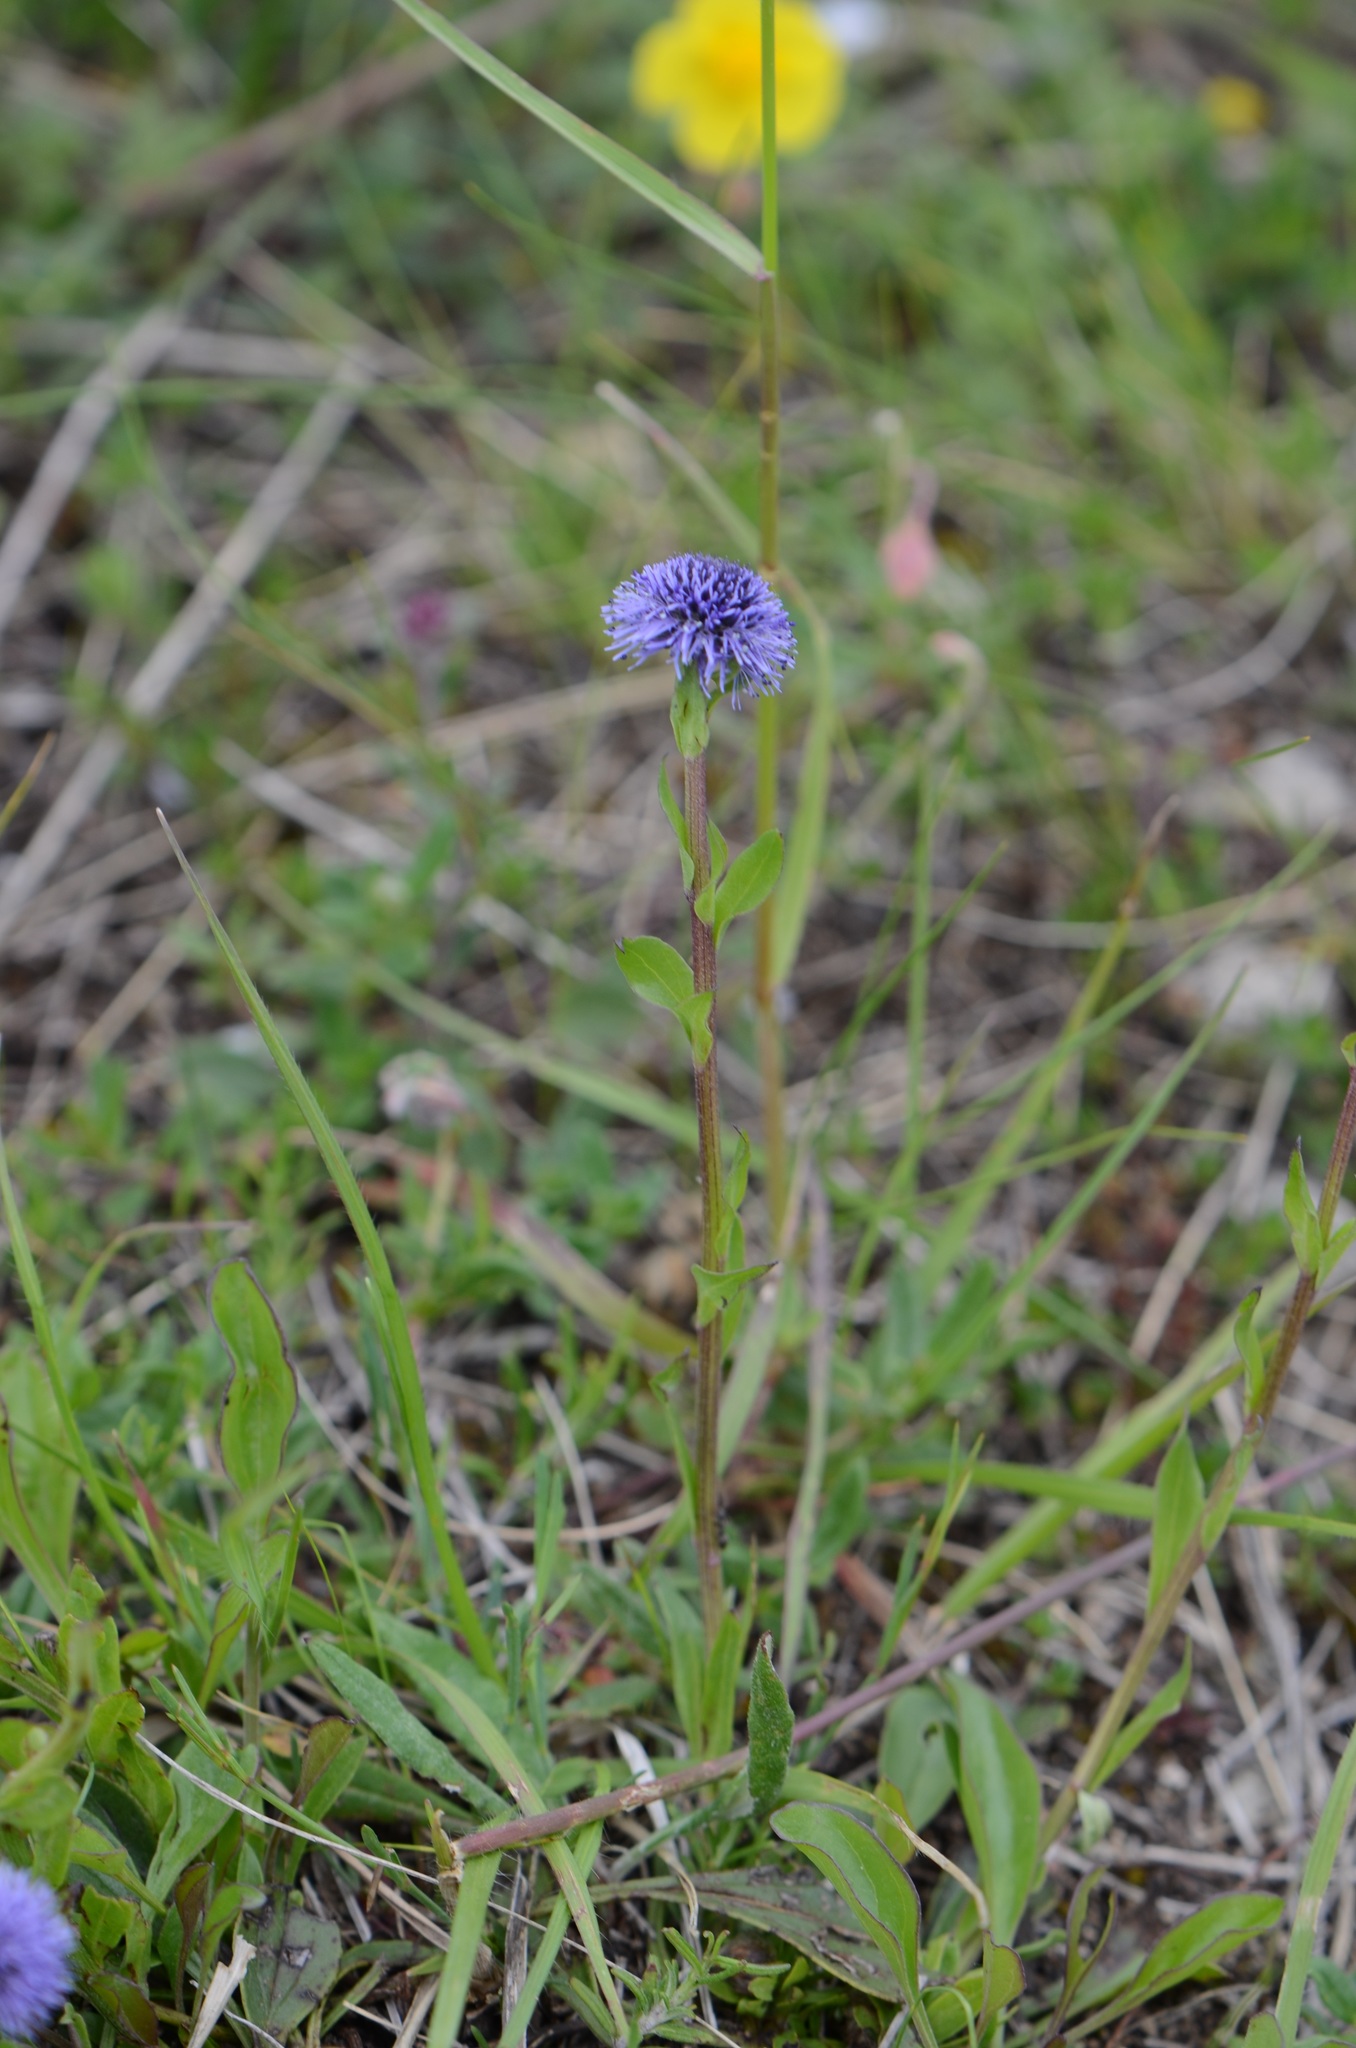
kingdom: Plantae
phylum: Tracheophyta
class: Magnoliopsida
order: Lamiales
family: Plantaginaceae
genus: Globularia
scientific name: Globularia bisnagarica
